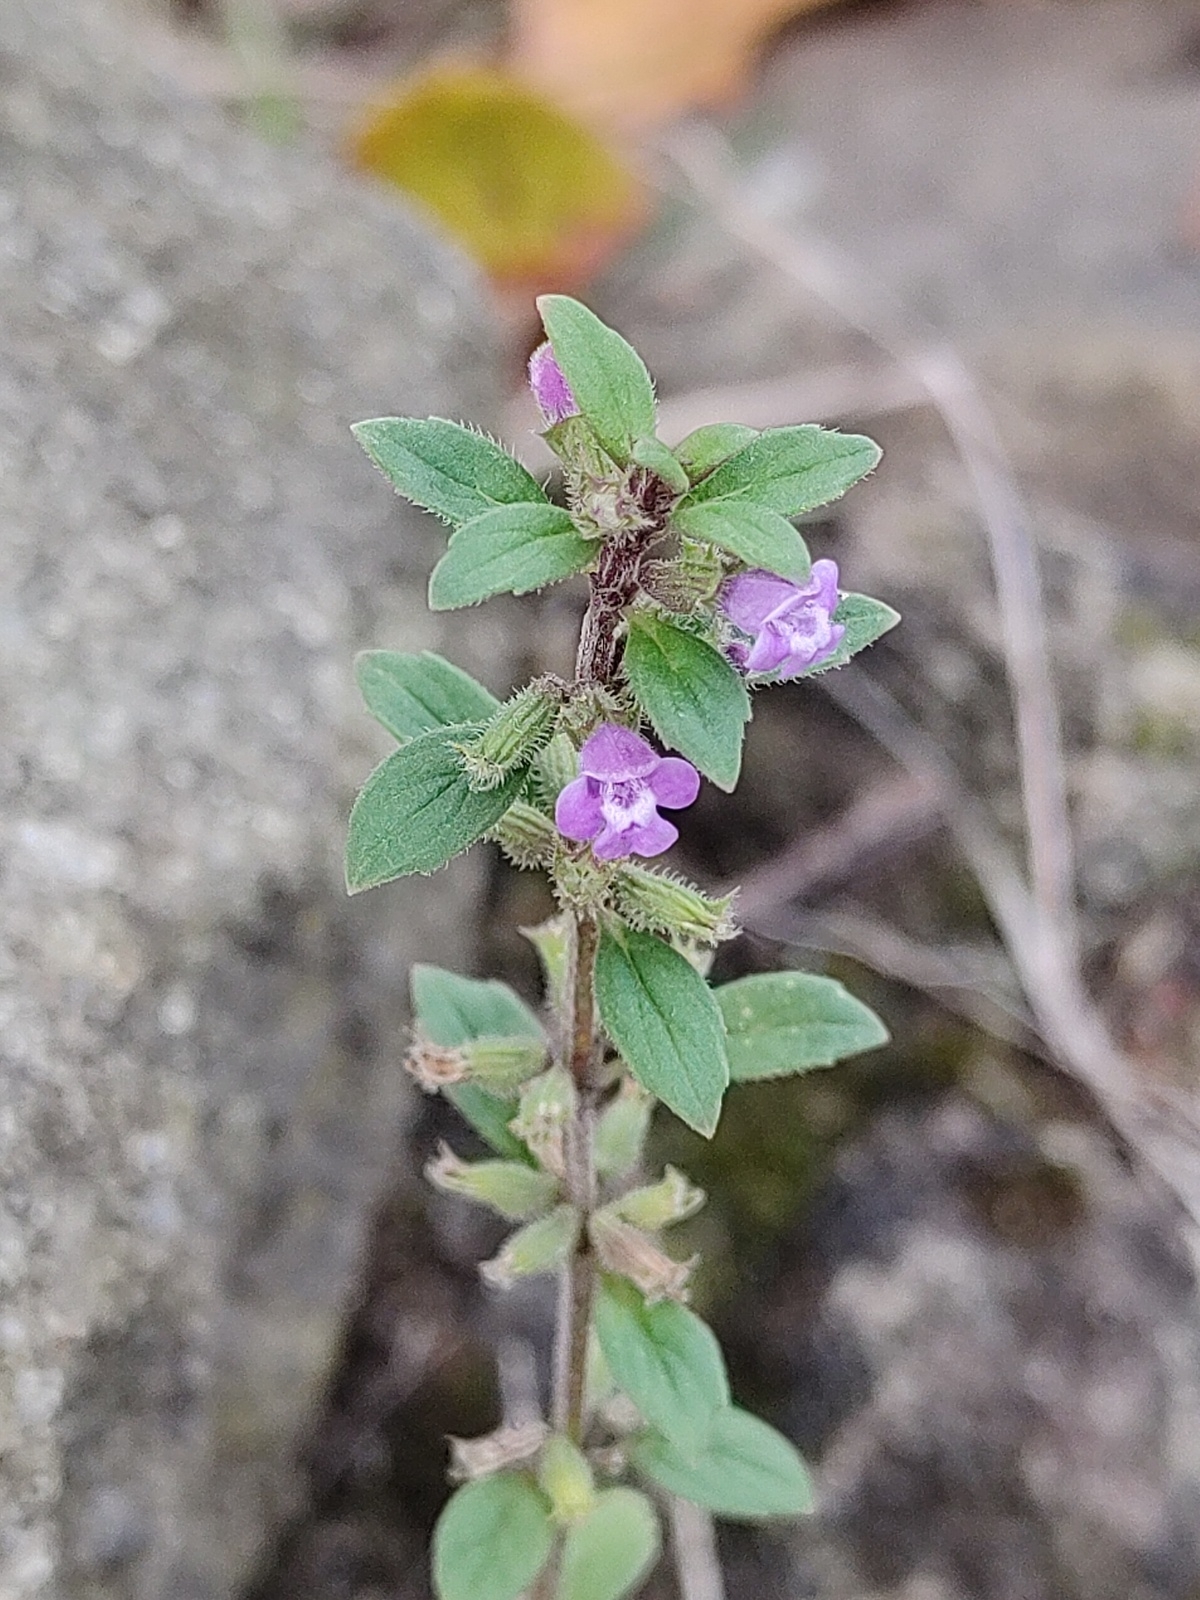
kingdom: Plantae
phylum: Tracheophyta
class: Magnoliopsida
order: Lamiales
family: Lamiaceae
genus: Clinopodium
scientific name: Clinopodium acinos
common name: Basil thyme
